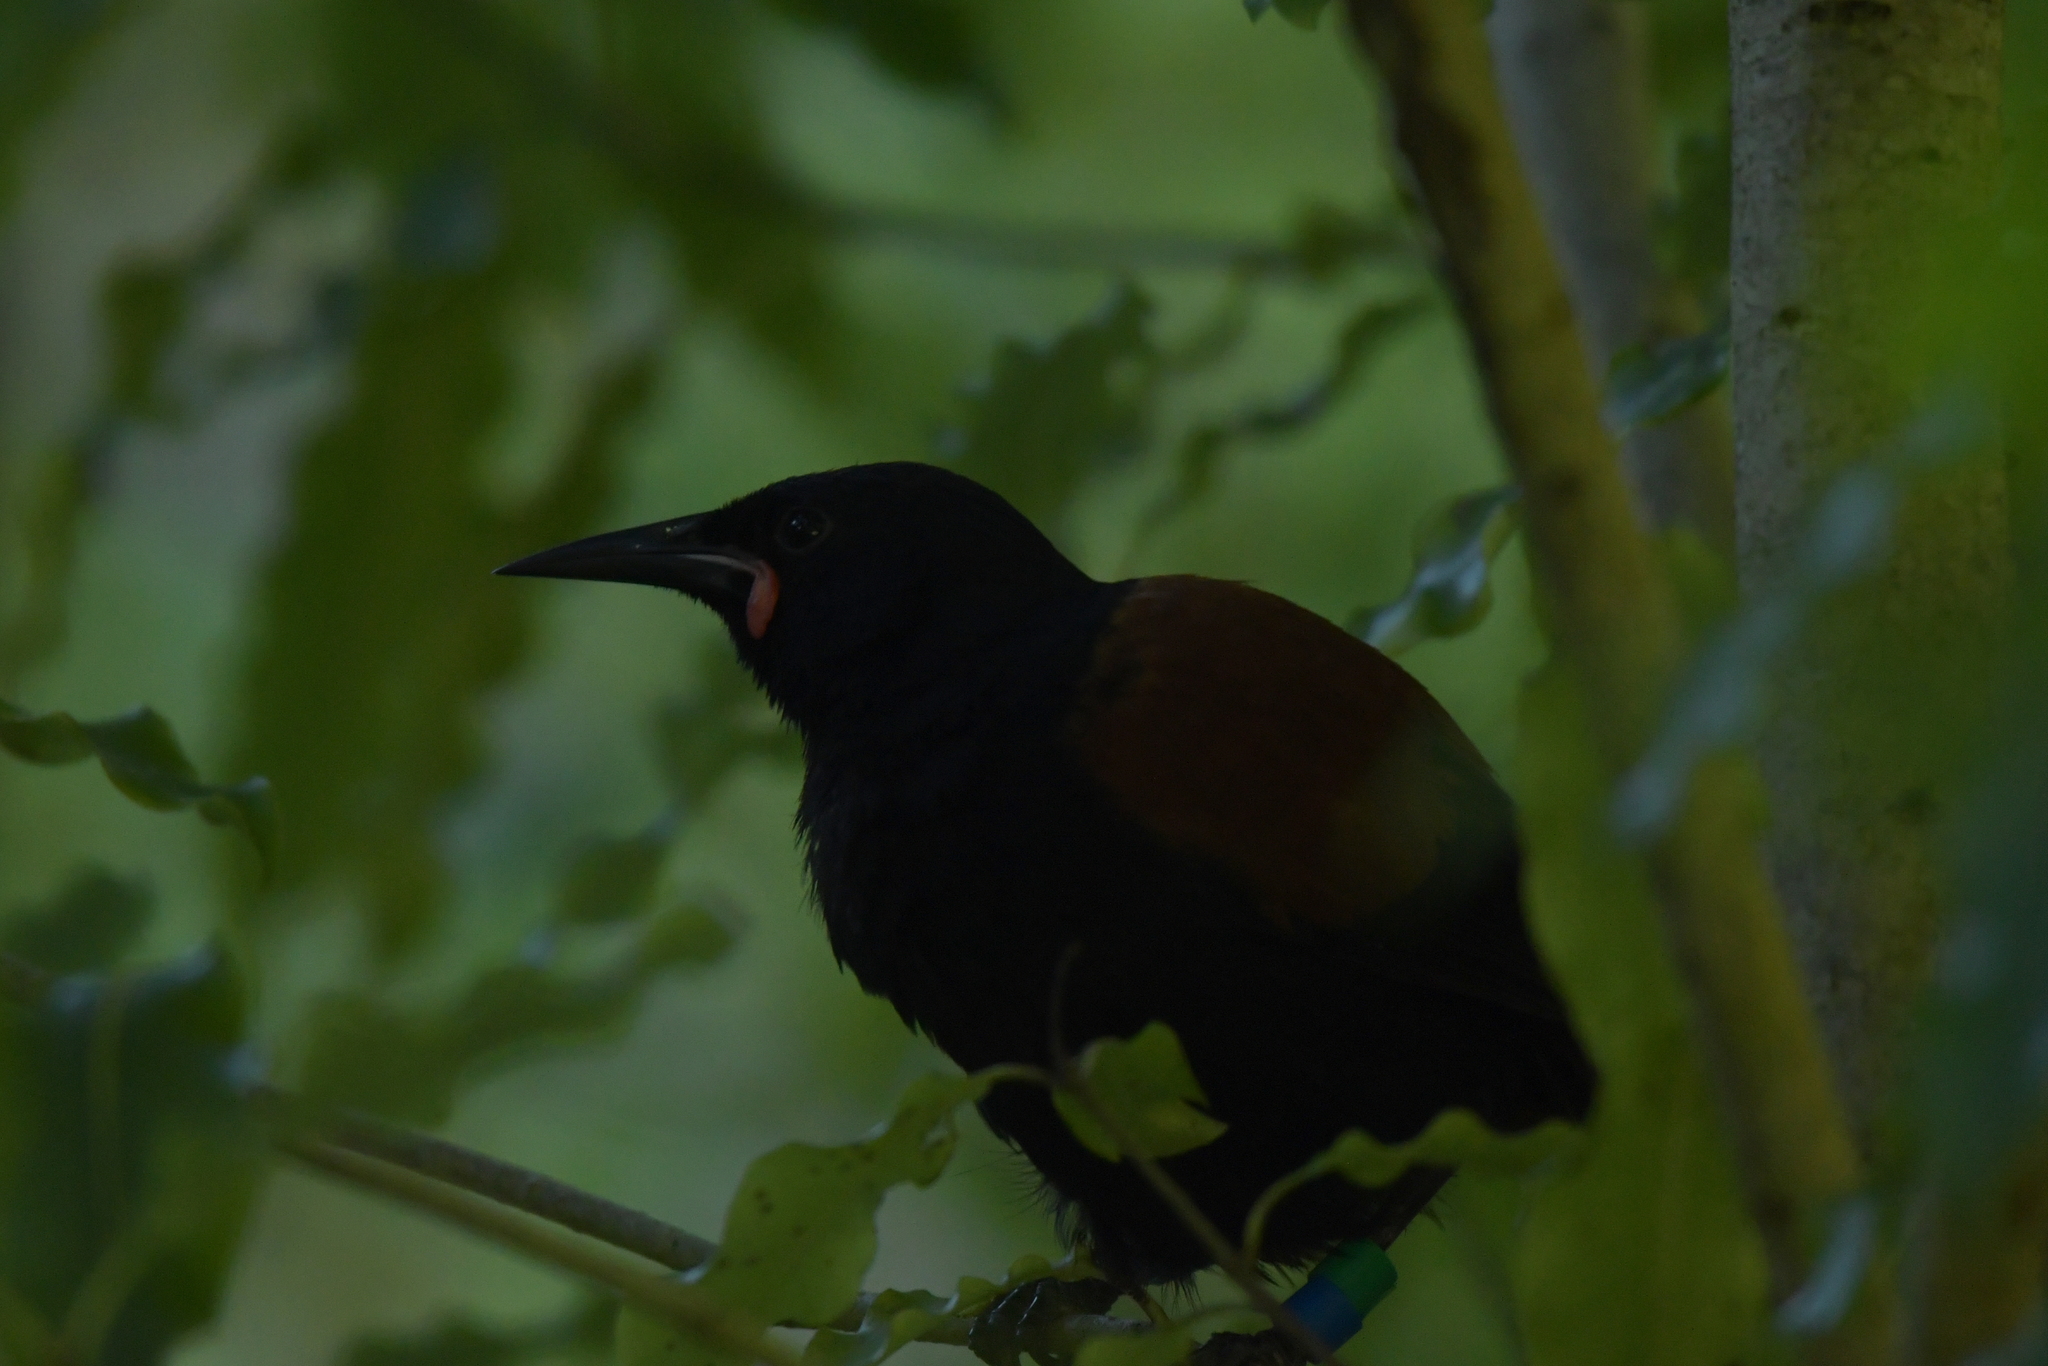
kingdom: Animalia
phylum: Chordata
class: Aves
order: Passeriformes
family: Callaeatidae
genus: Philesturnus
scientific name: Philesturnus carunculatus
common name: South island saddleback
